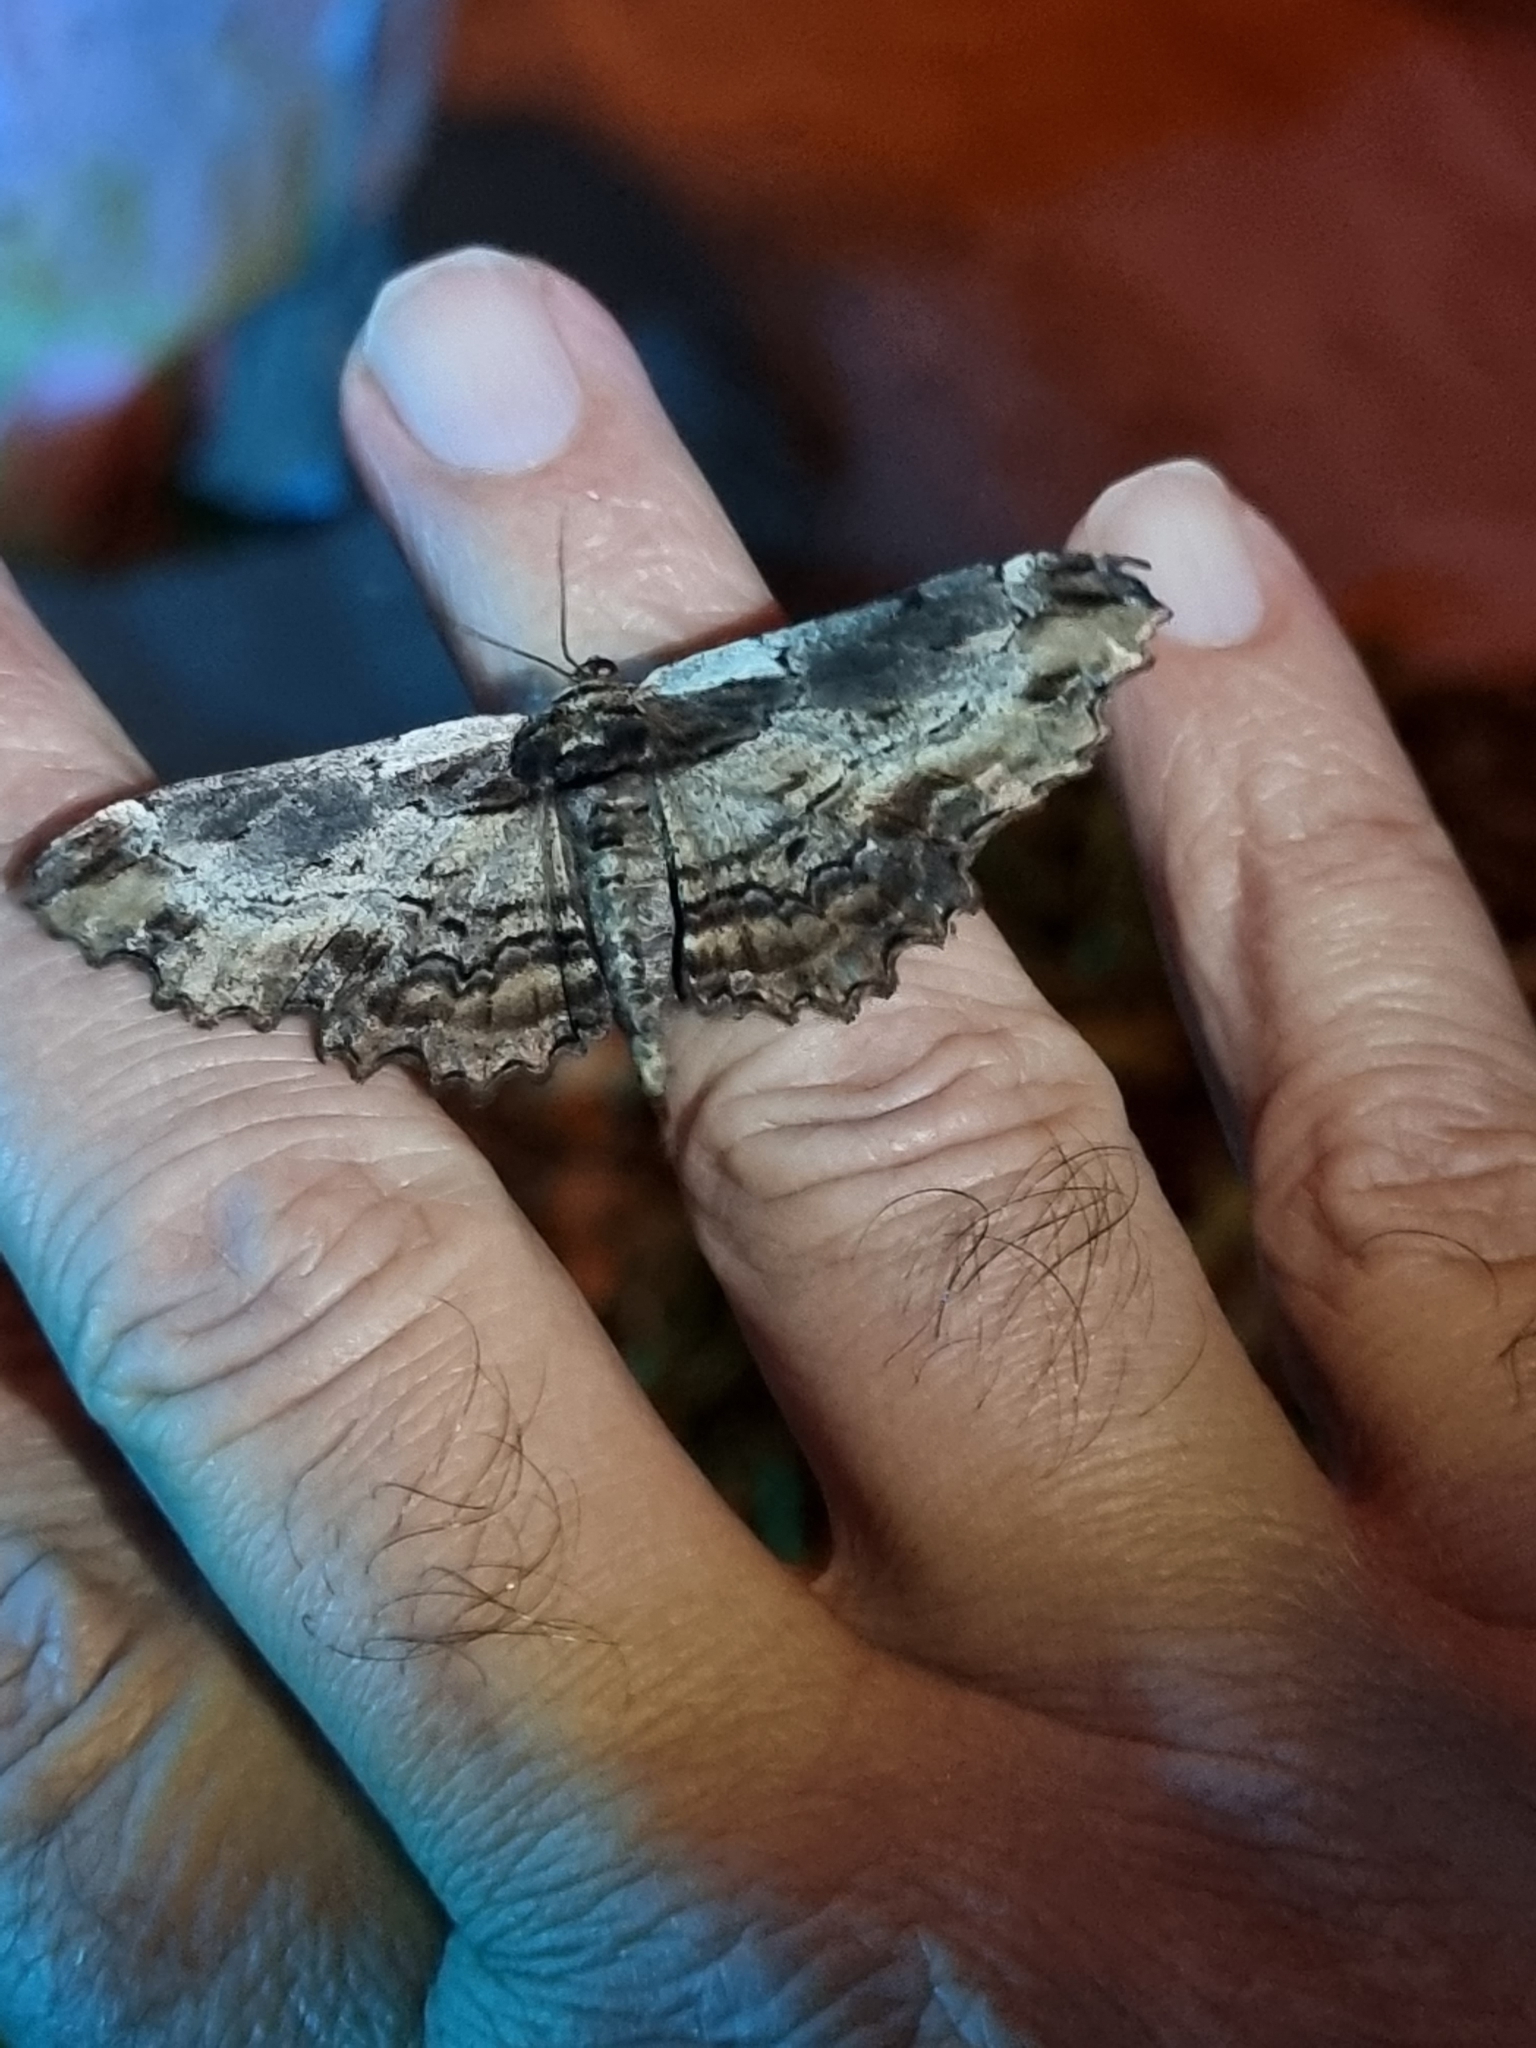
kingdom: Animalia
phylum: Arthropoda
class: Insecta
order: Lepidoptera
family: Geometridae
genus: Pholodes
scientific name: Pholodes sinistraria
